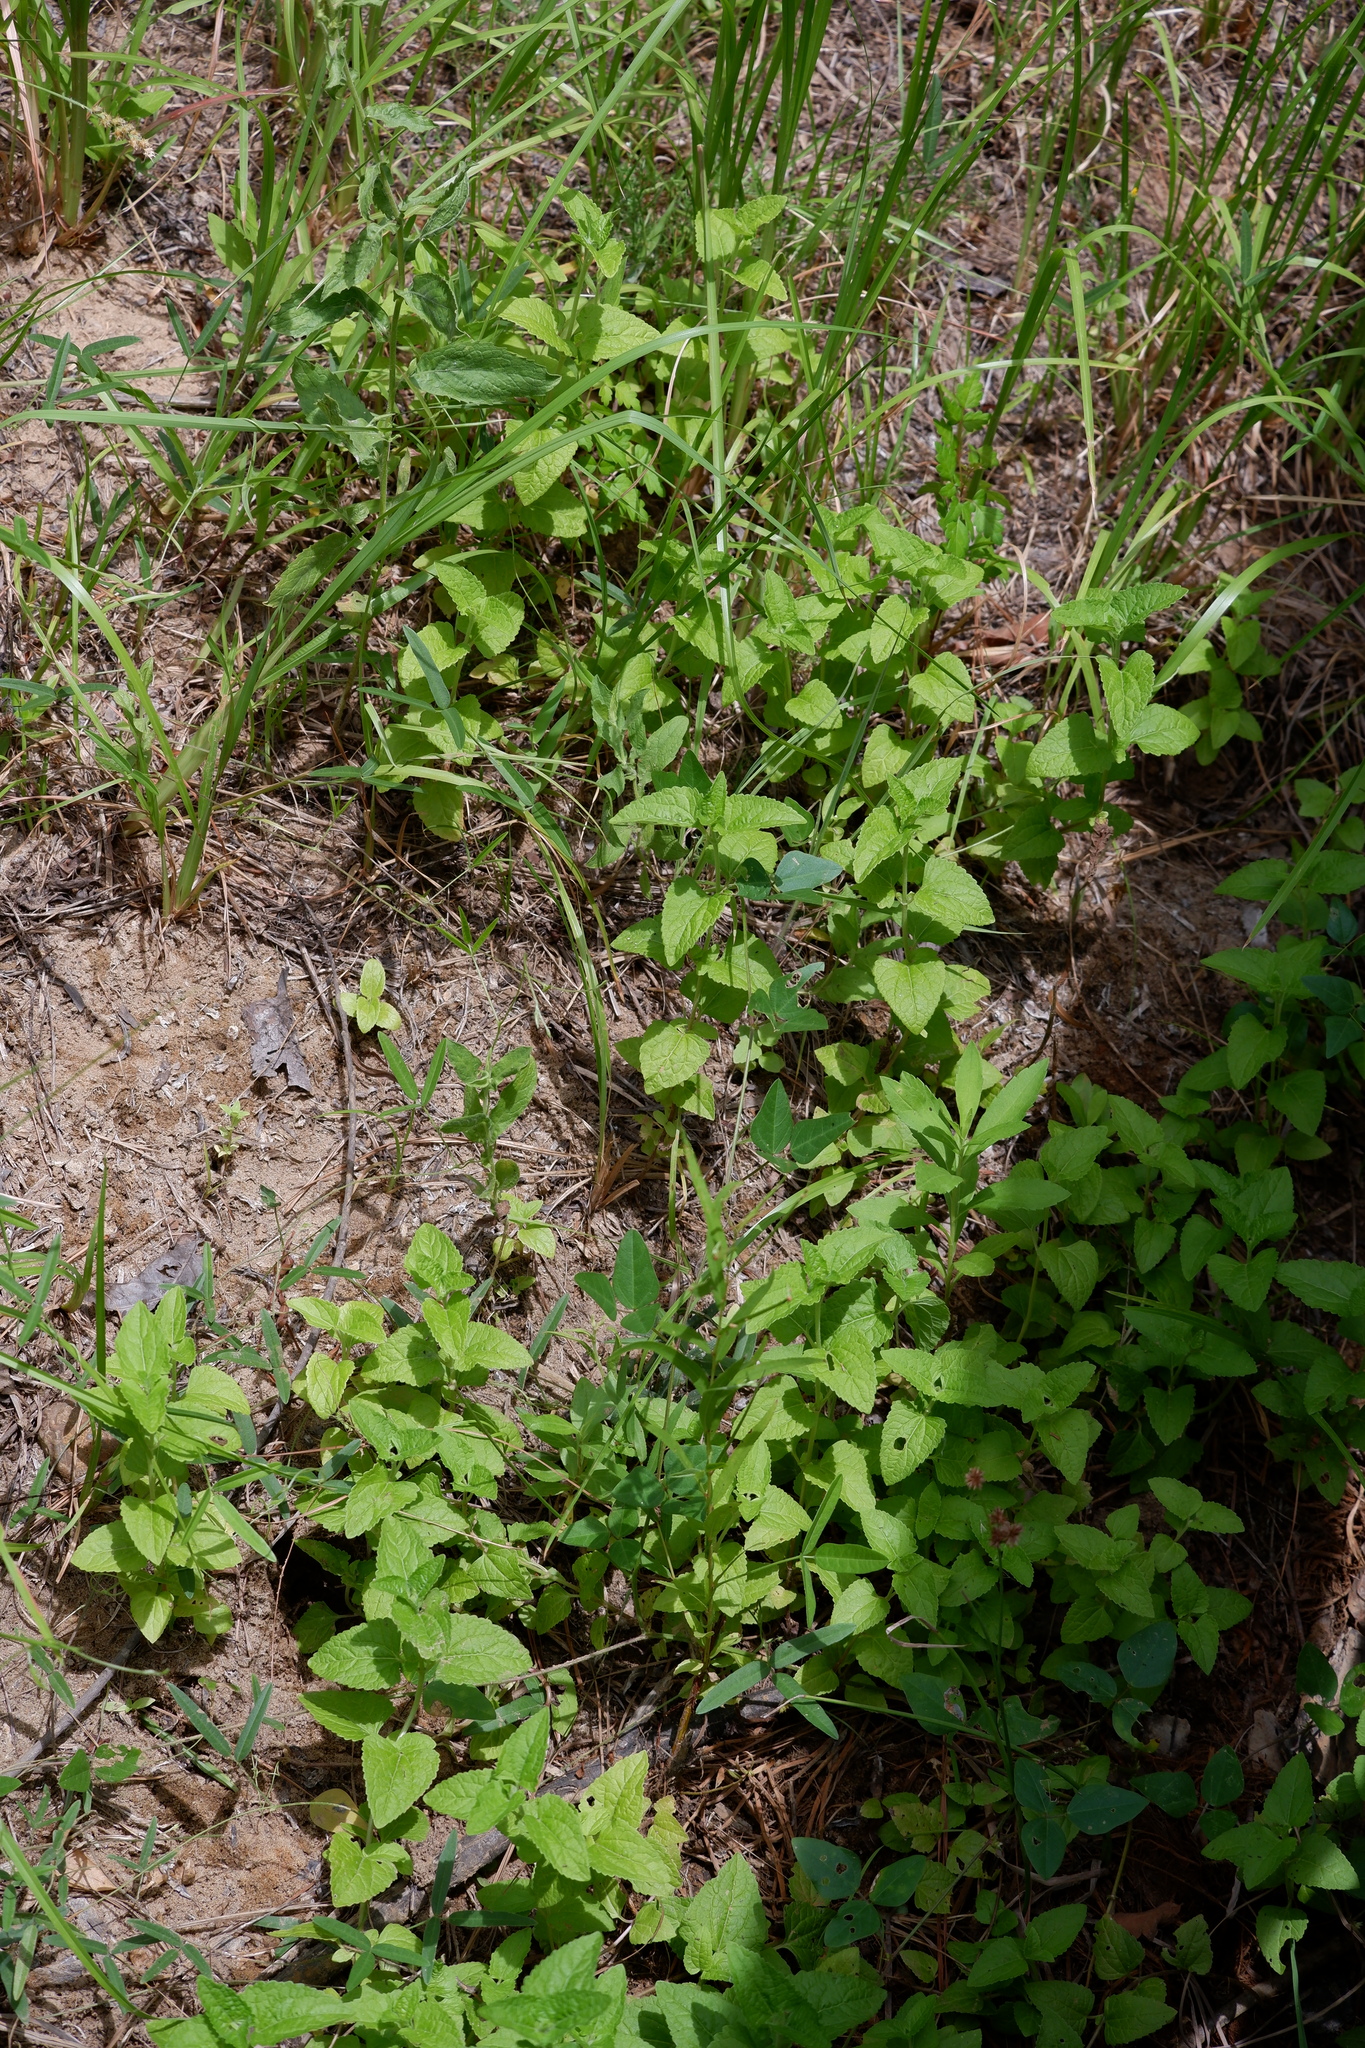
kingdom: Plantae
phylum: Tracheophyta
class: Magnoliopsida
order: Asterales
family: Asteraceae
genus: Conoclinium
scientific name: Conoclinium coelestinum
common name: Blue mistflower
